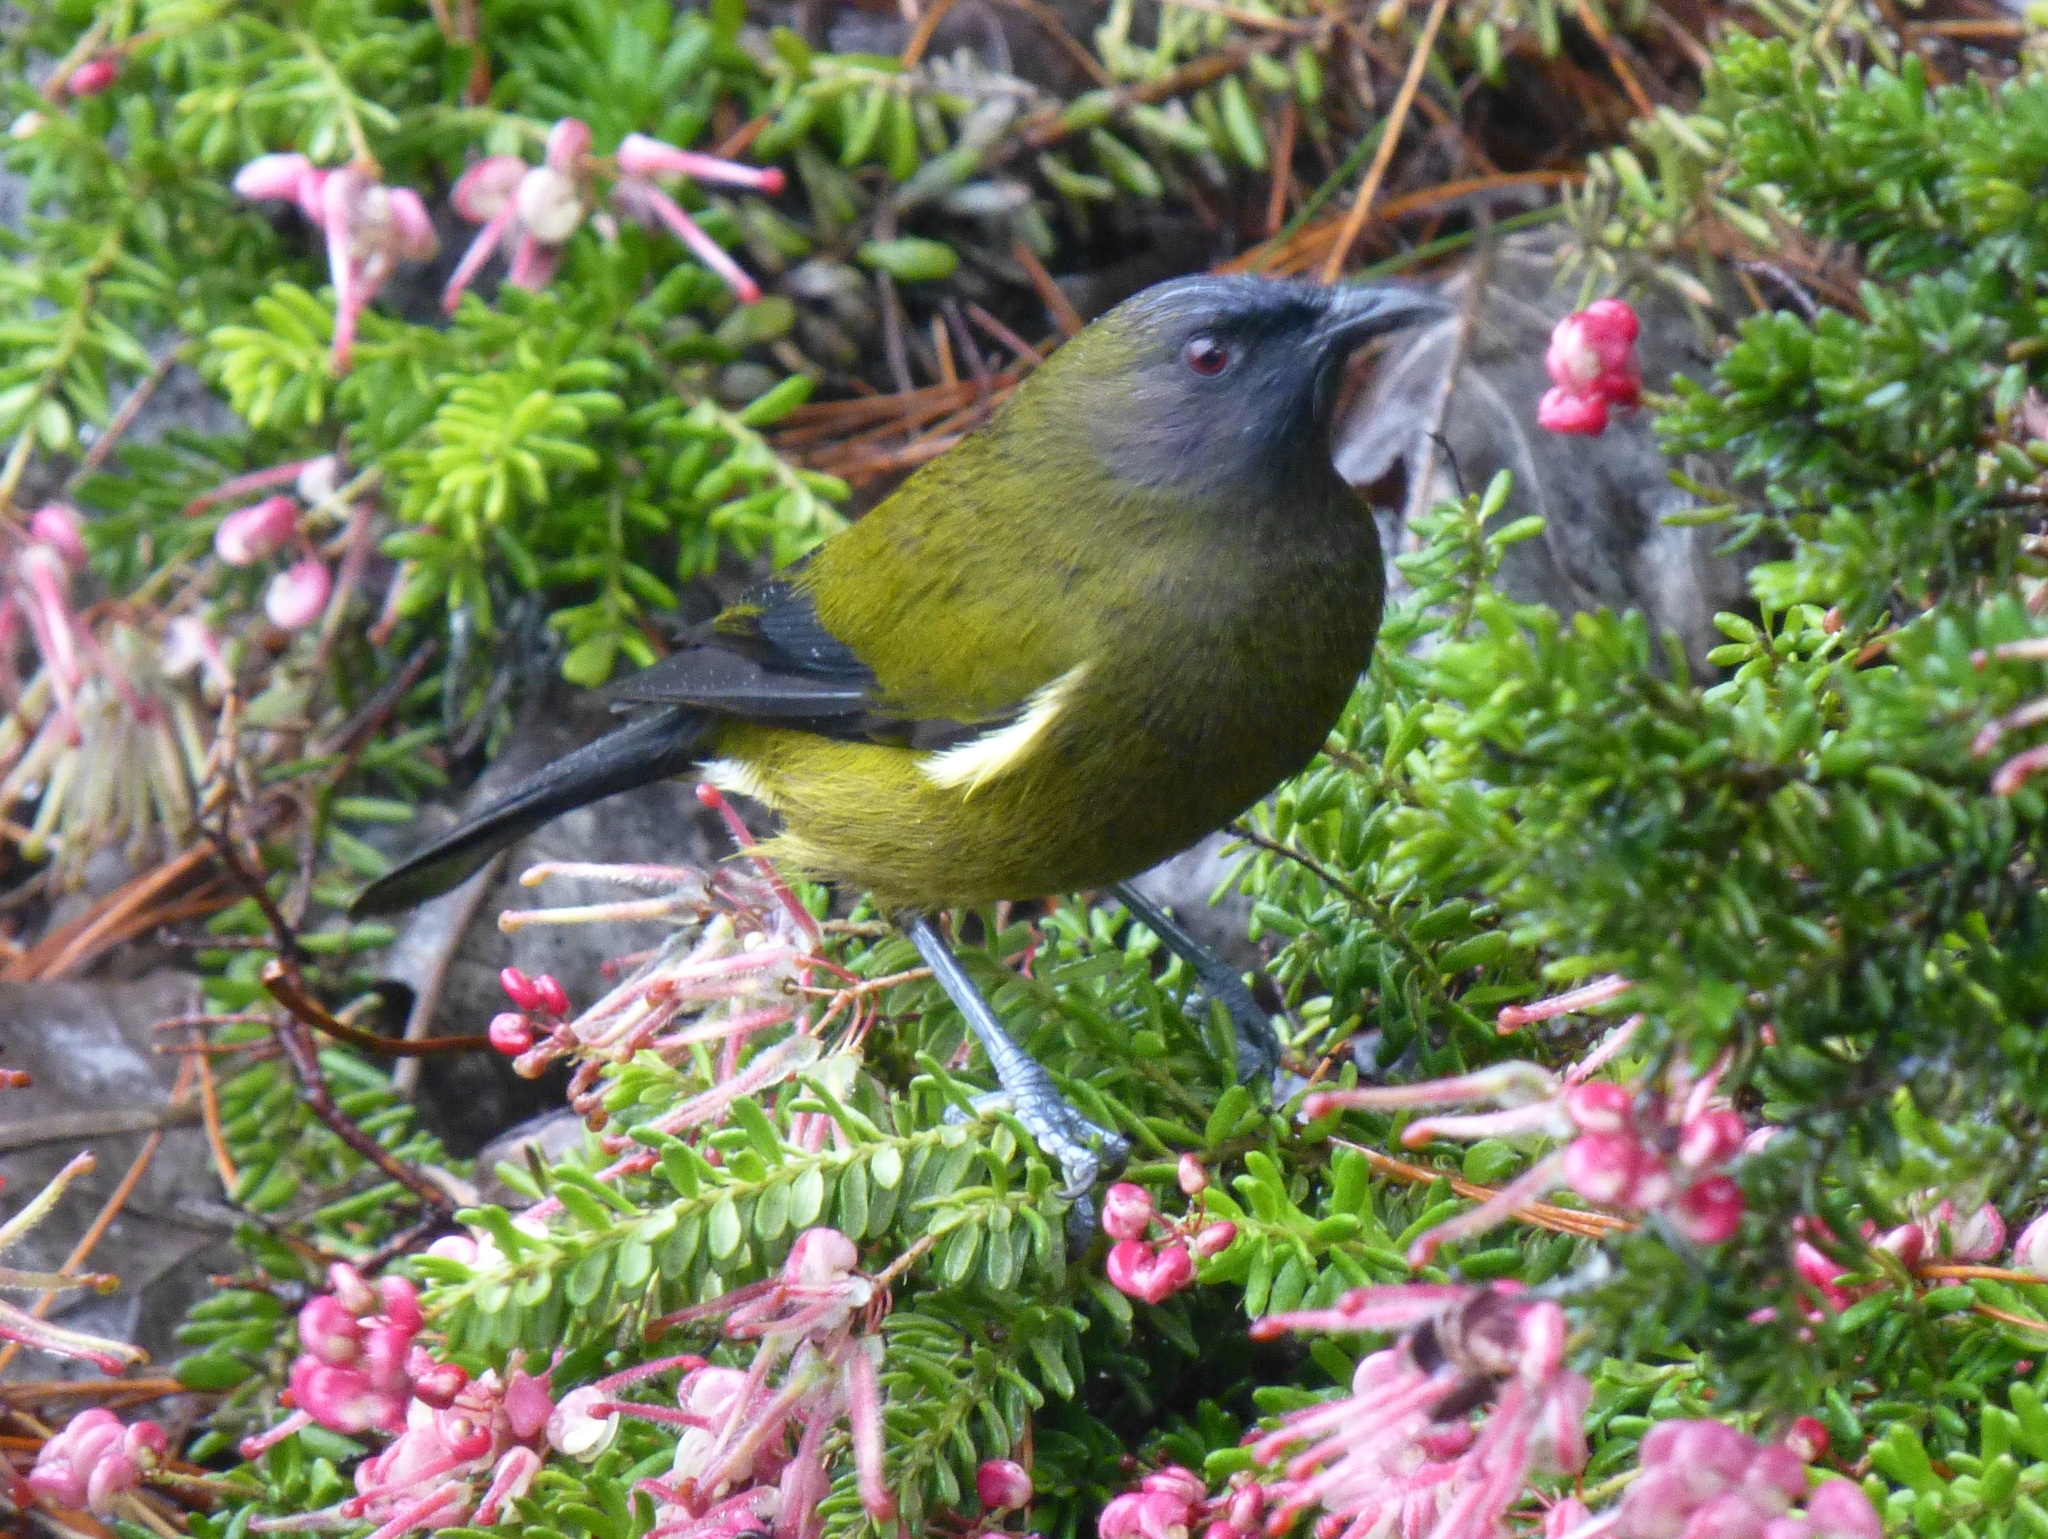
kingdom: Animalia
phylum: Chordata
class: Aves
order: Passeriformes
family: Meliphagidae
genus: Anthornis
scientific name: Anthornis melanura
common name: New zealand bellbird
